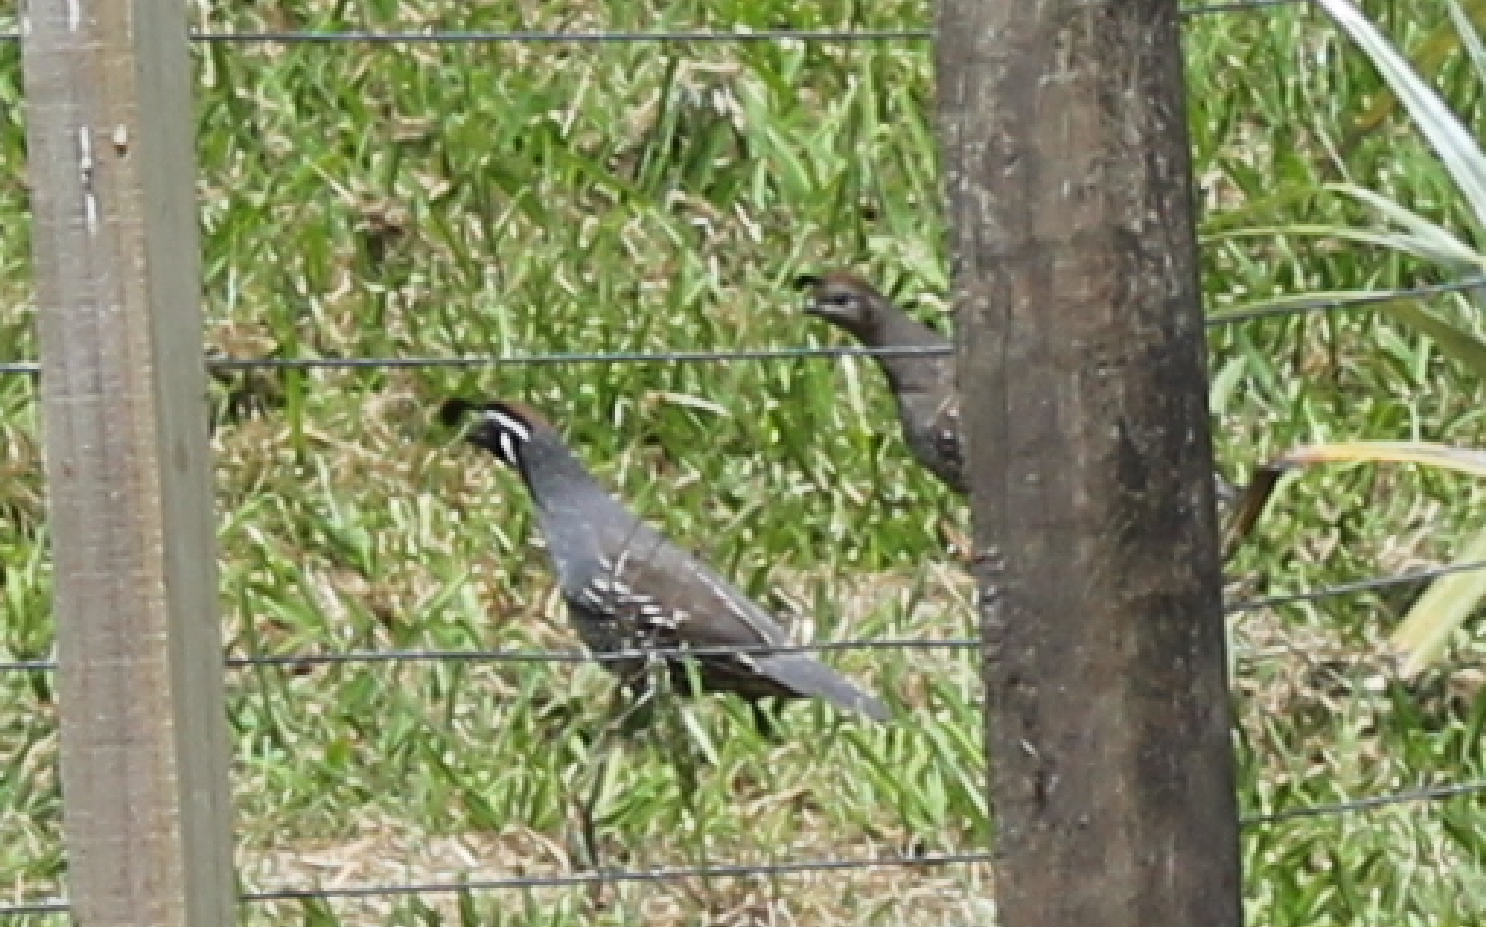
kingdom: Animalia
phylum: Chordata
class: Aves
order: Galliformes
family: Odontophoridae
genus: Callipepla
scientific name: Callipepla californica
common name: California quail
